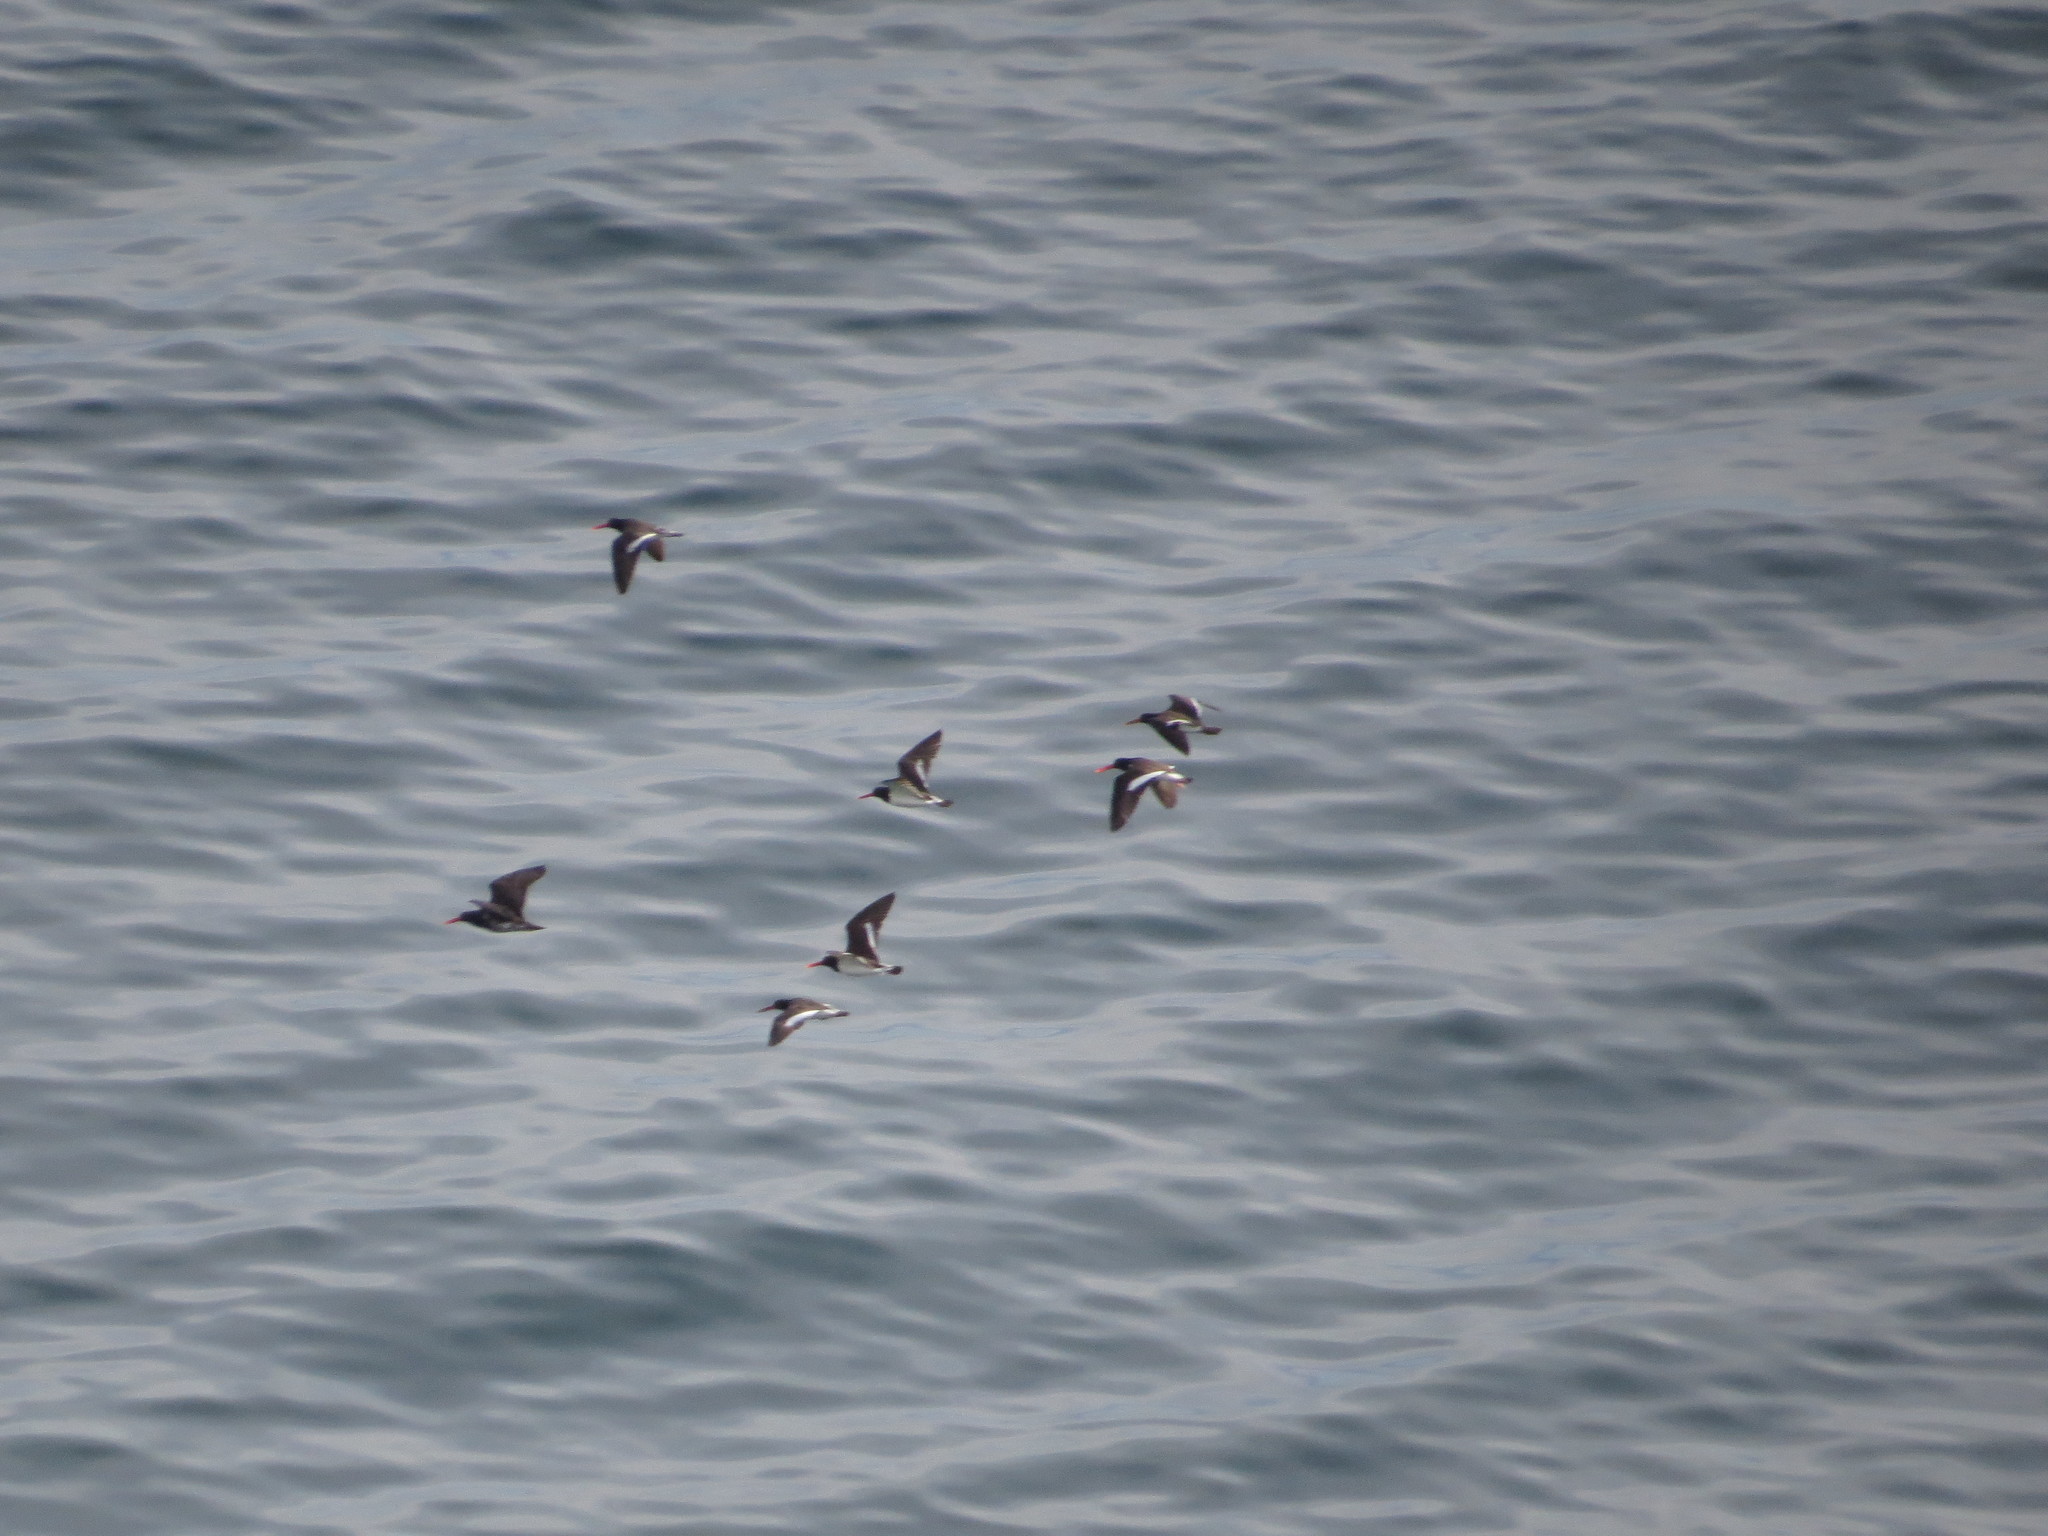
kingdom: Animalia
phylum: Chordata
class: Aves
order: Charadriiformes
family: Haematopodidae
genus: Haematopus
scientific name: Haematopus ater
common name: Blackish oystercatcher
